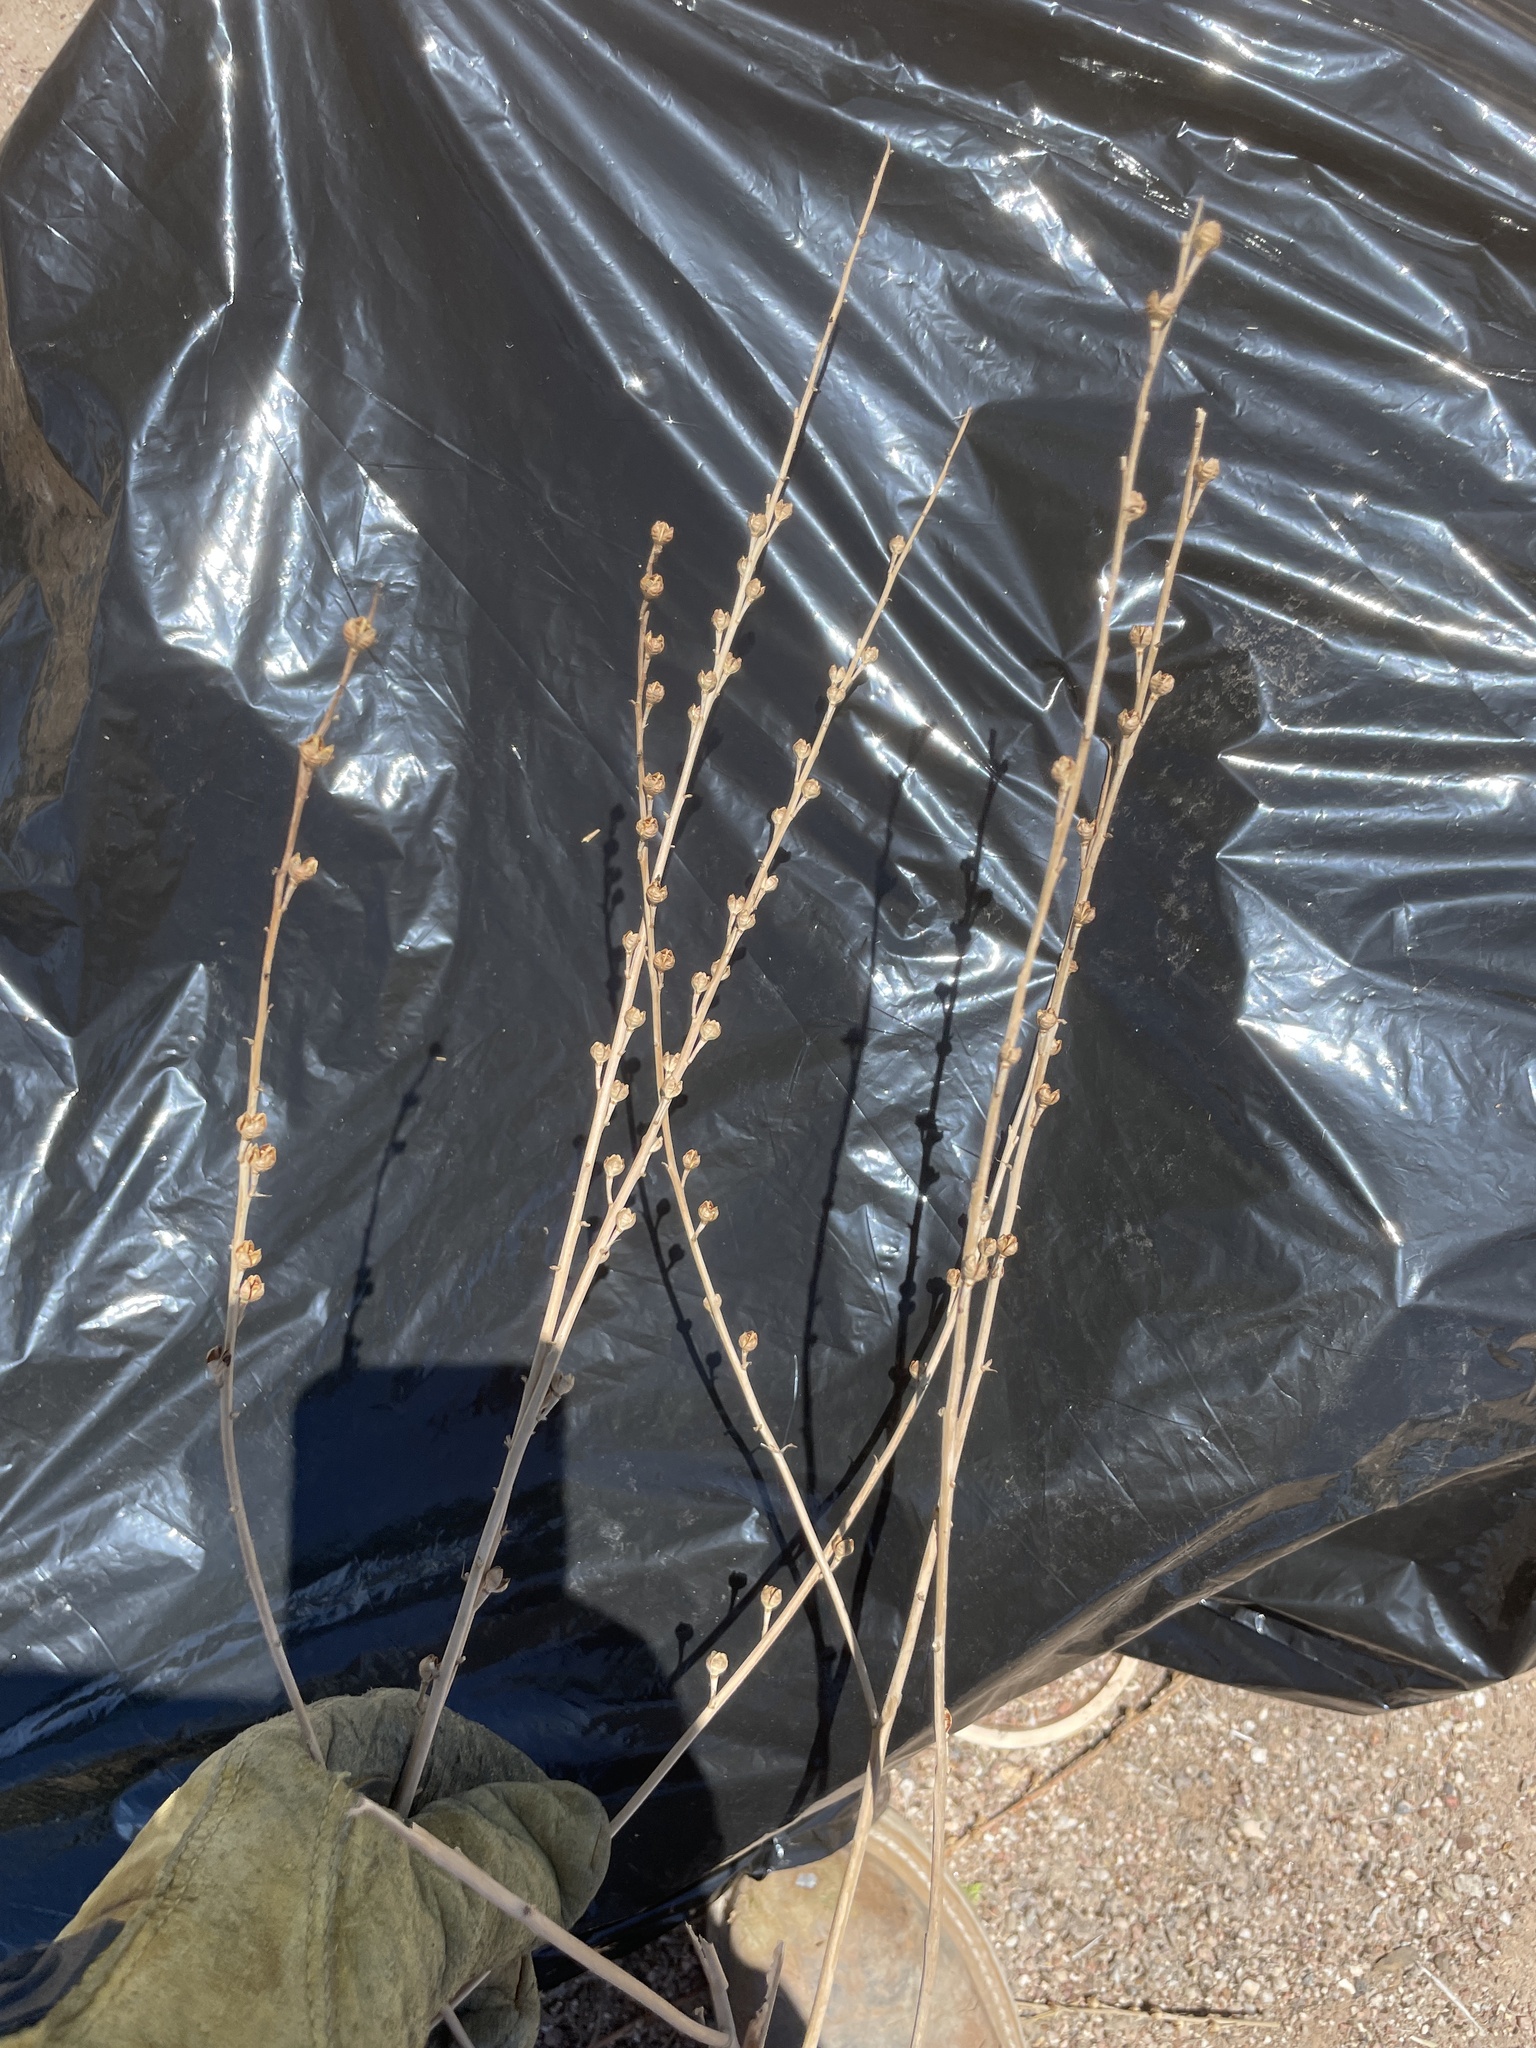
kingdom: Plantae
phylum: Tracheophyta
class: Liliopsida
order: Asparagales
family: Asphodelaceae
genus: Asphodelus
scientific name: Asphodelus fistulosus
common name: Onionweed
